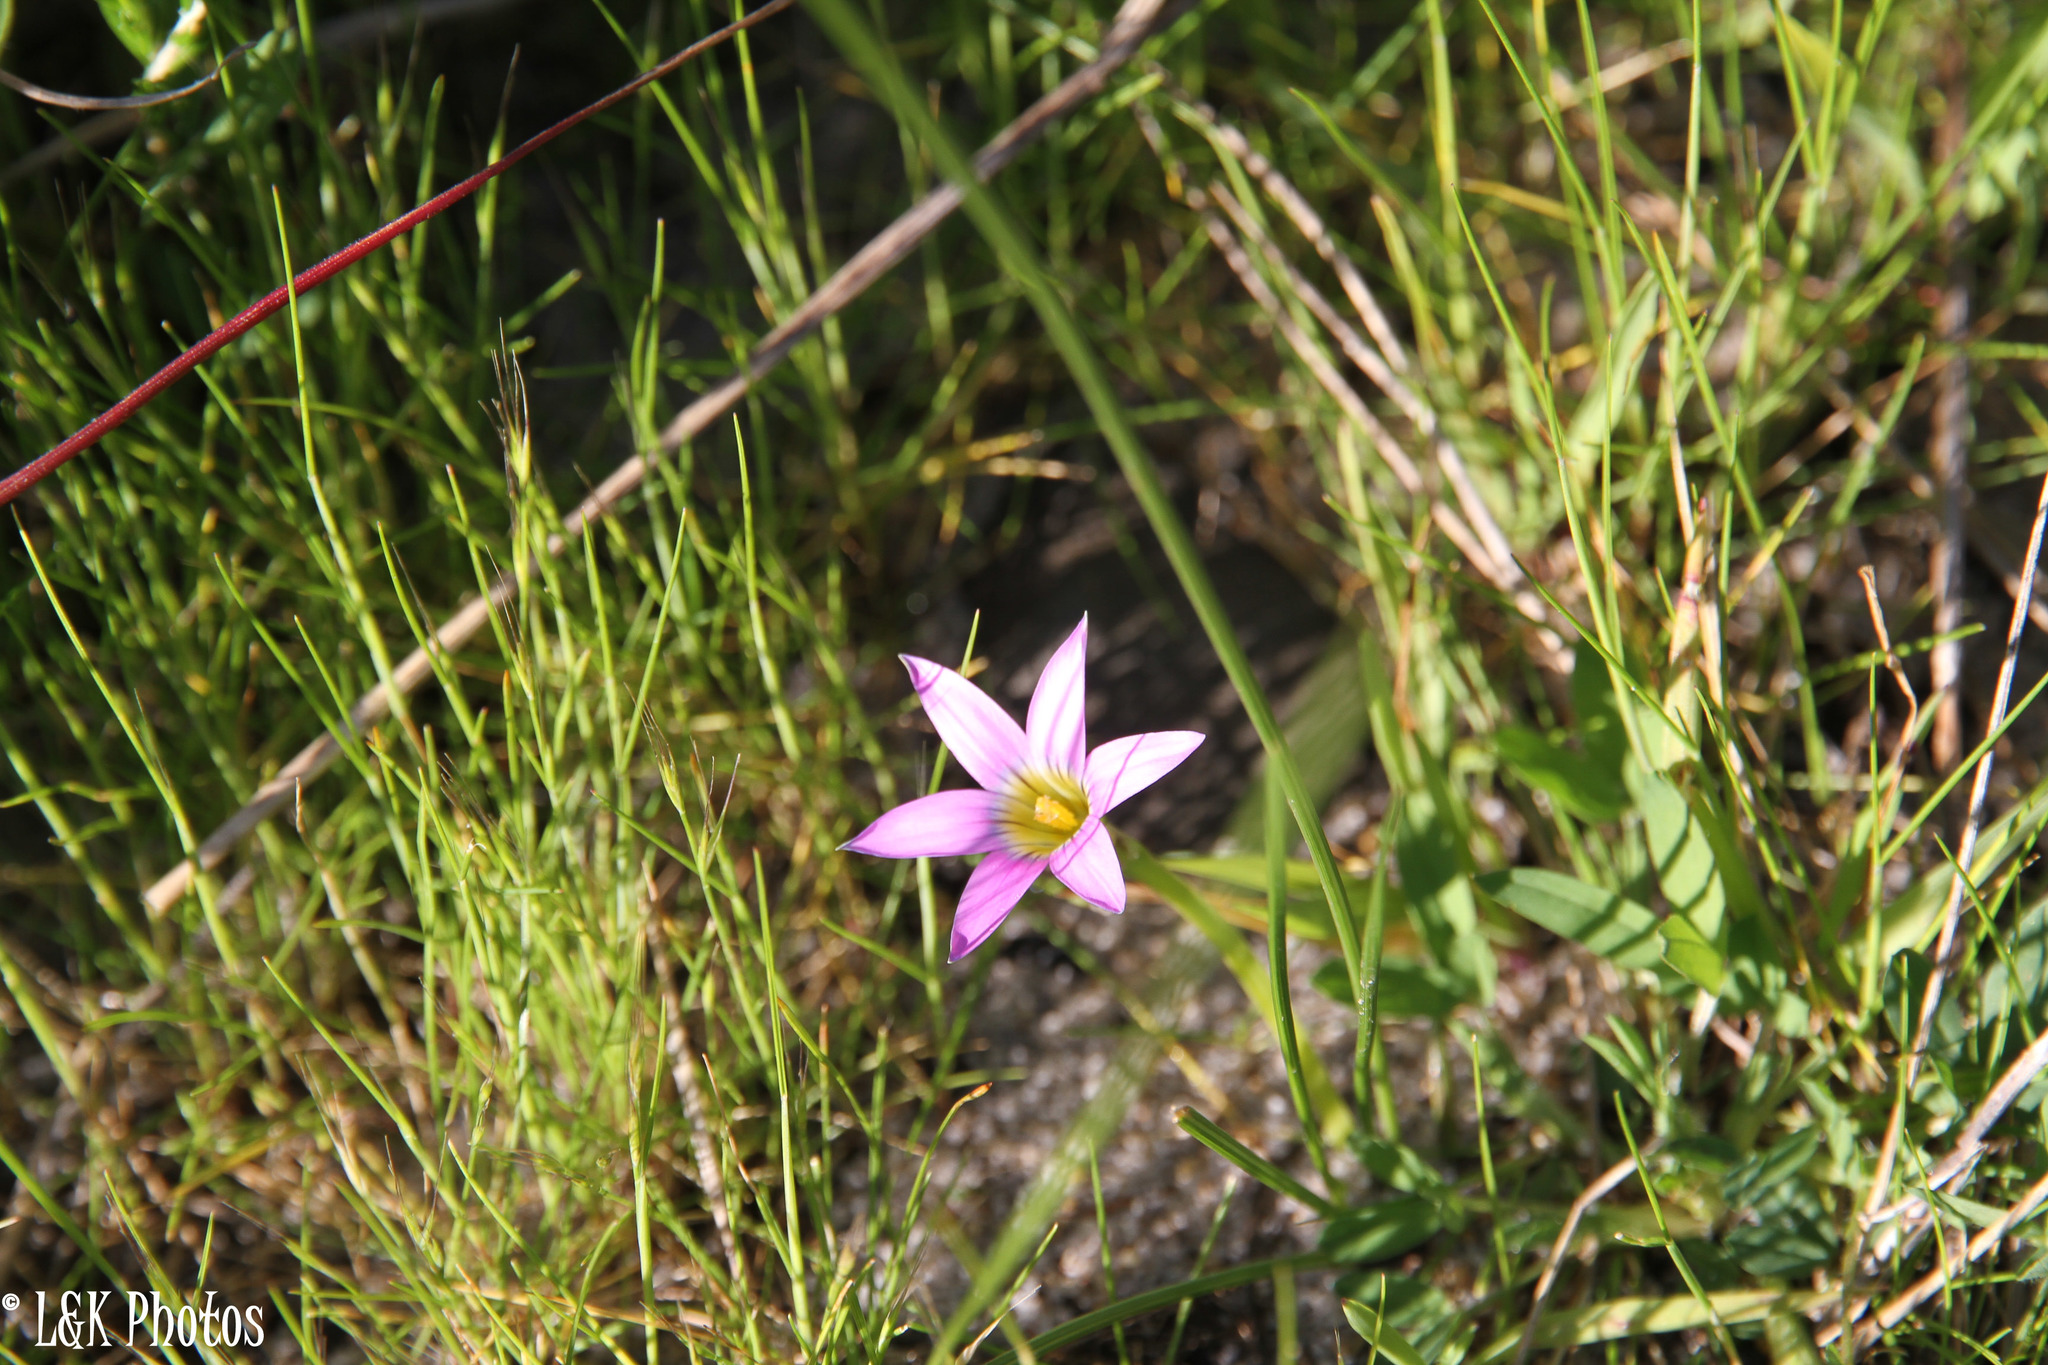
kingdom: Plantae
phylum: Tracheophyta
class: Liliopsida
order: Asparagales
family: Iridaceae
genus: Romulea
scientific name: Romulea rosea
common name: Oniongrass
